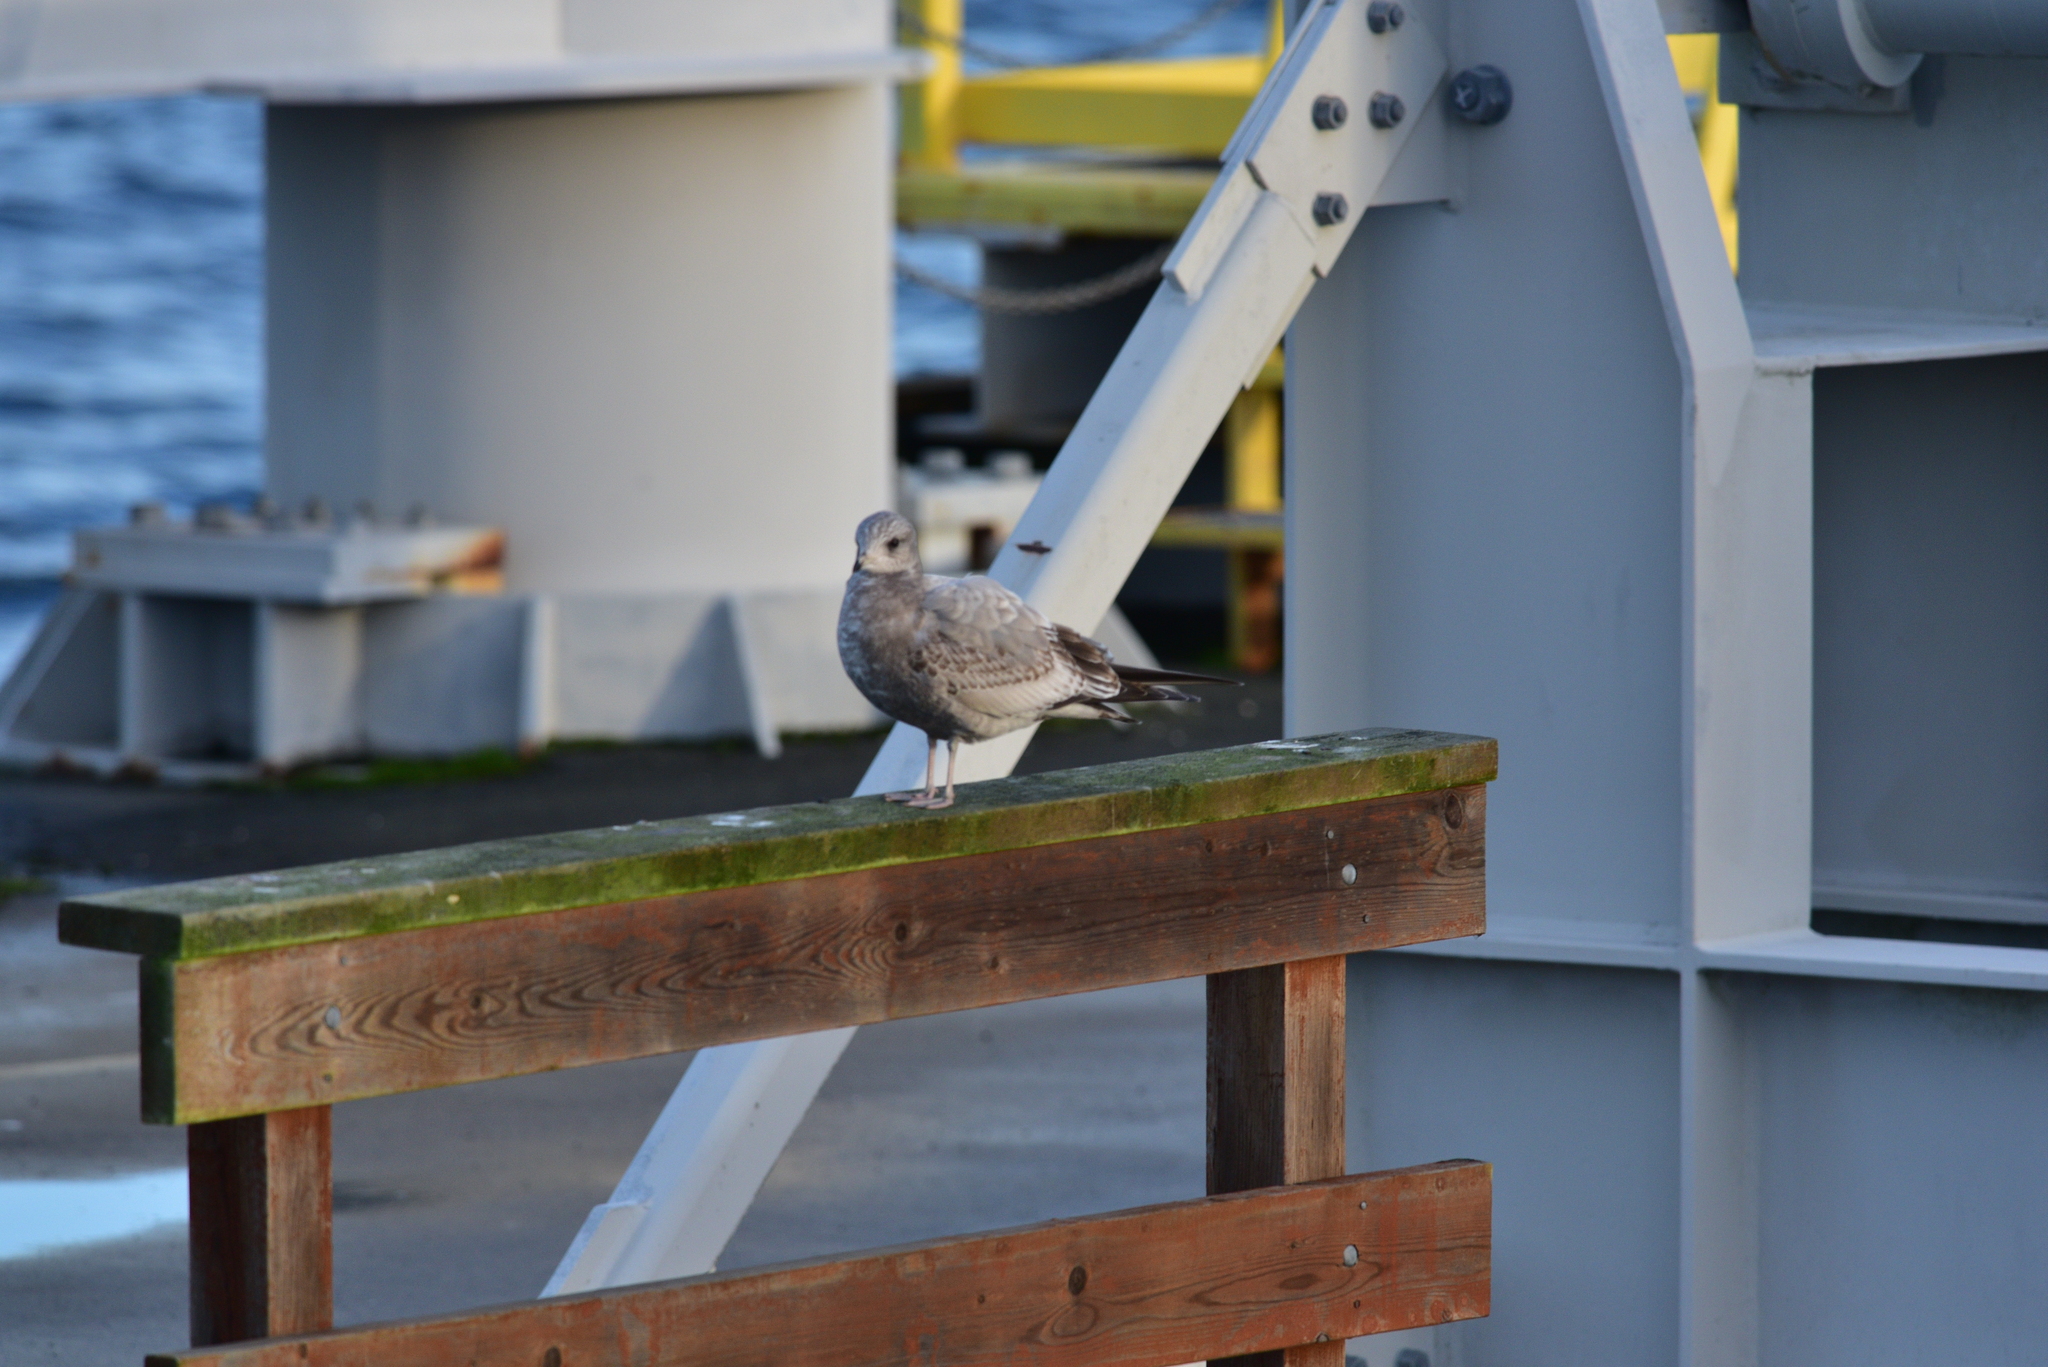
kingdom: Animalia
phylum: Chordata
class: Aves
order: Charadriiformes
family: Laridae
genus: Larus
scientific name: Larus brachyrhynchus
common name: Short-billed gull
